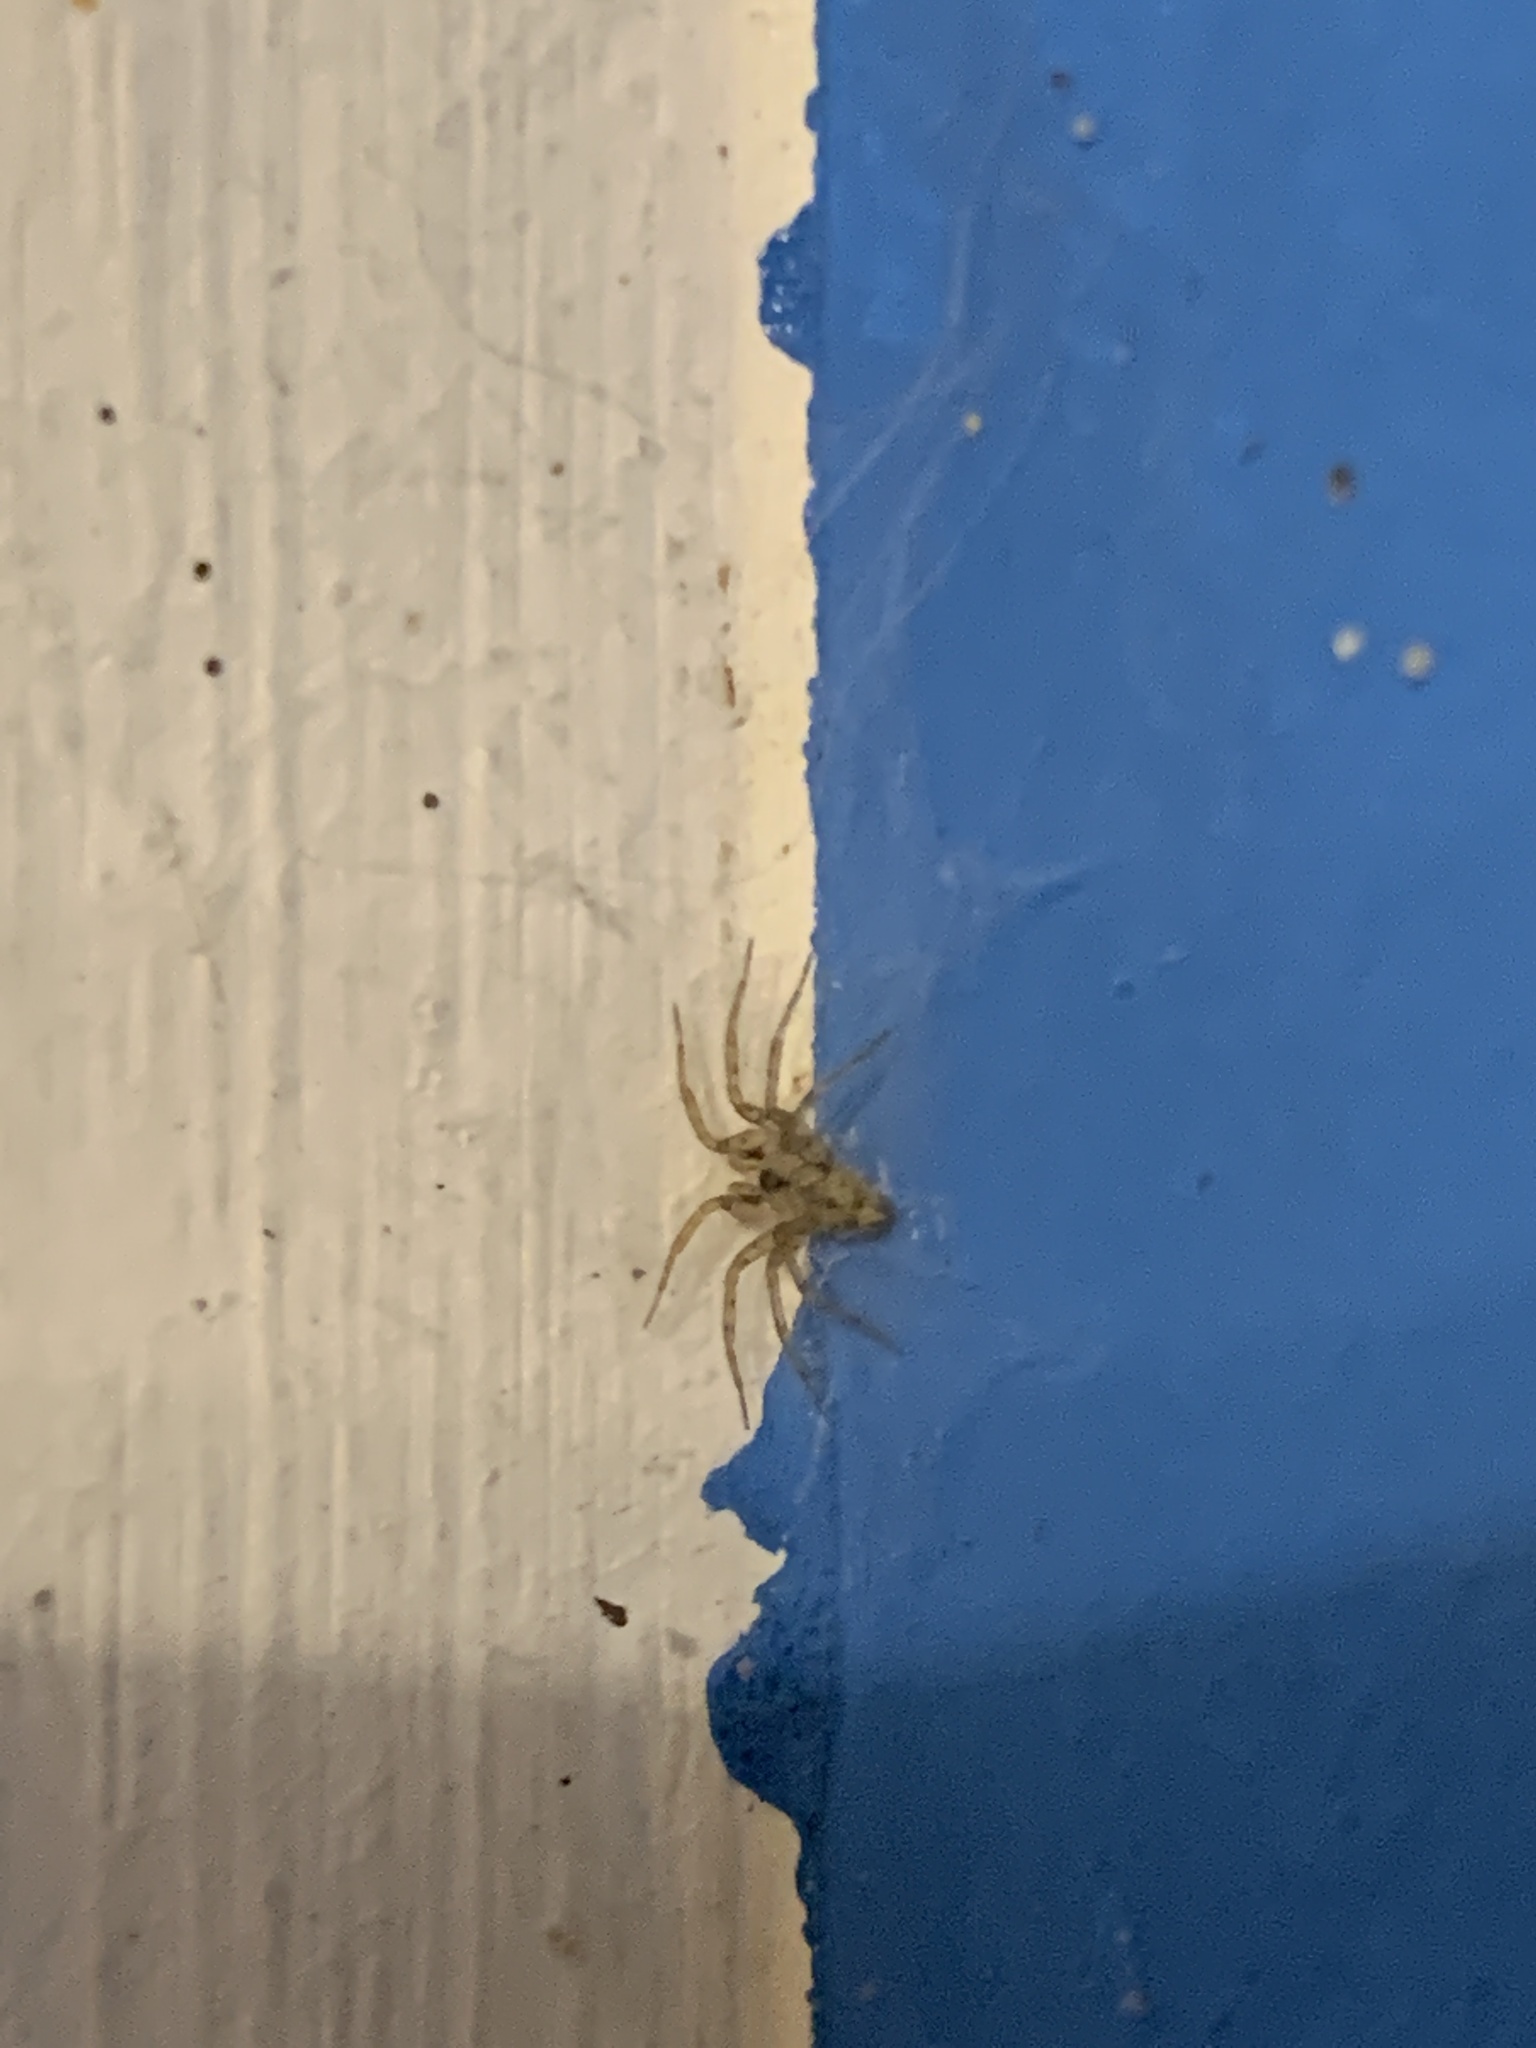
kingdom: Animalia
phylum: Arthropoda
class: Arachnida
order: Araneae
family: Oecobiidae
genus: Oecobius
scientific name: Oecobius navus
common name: Flatmesh weaver
